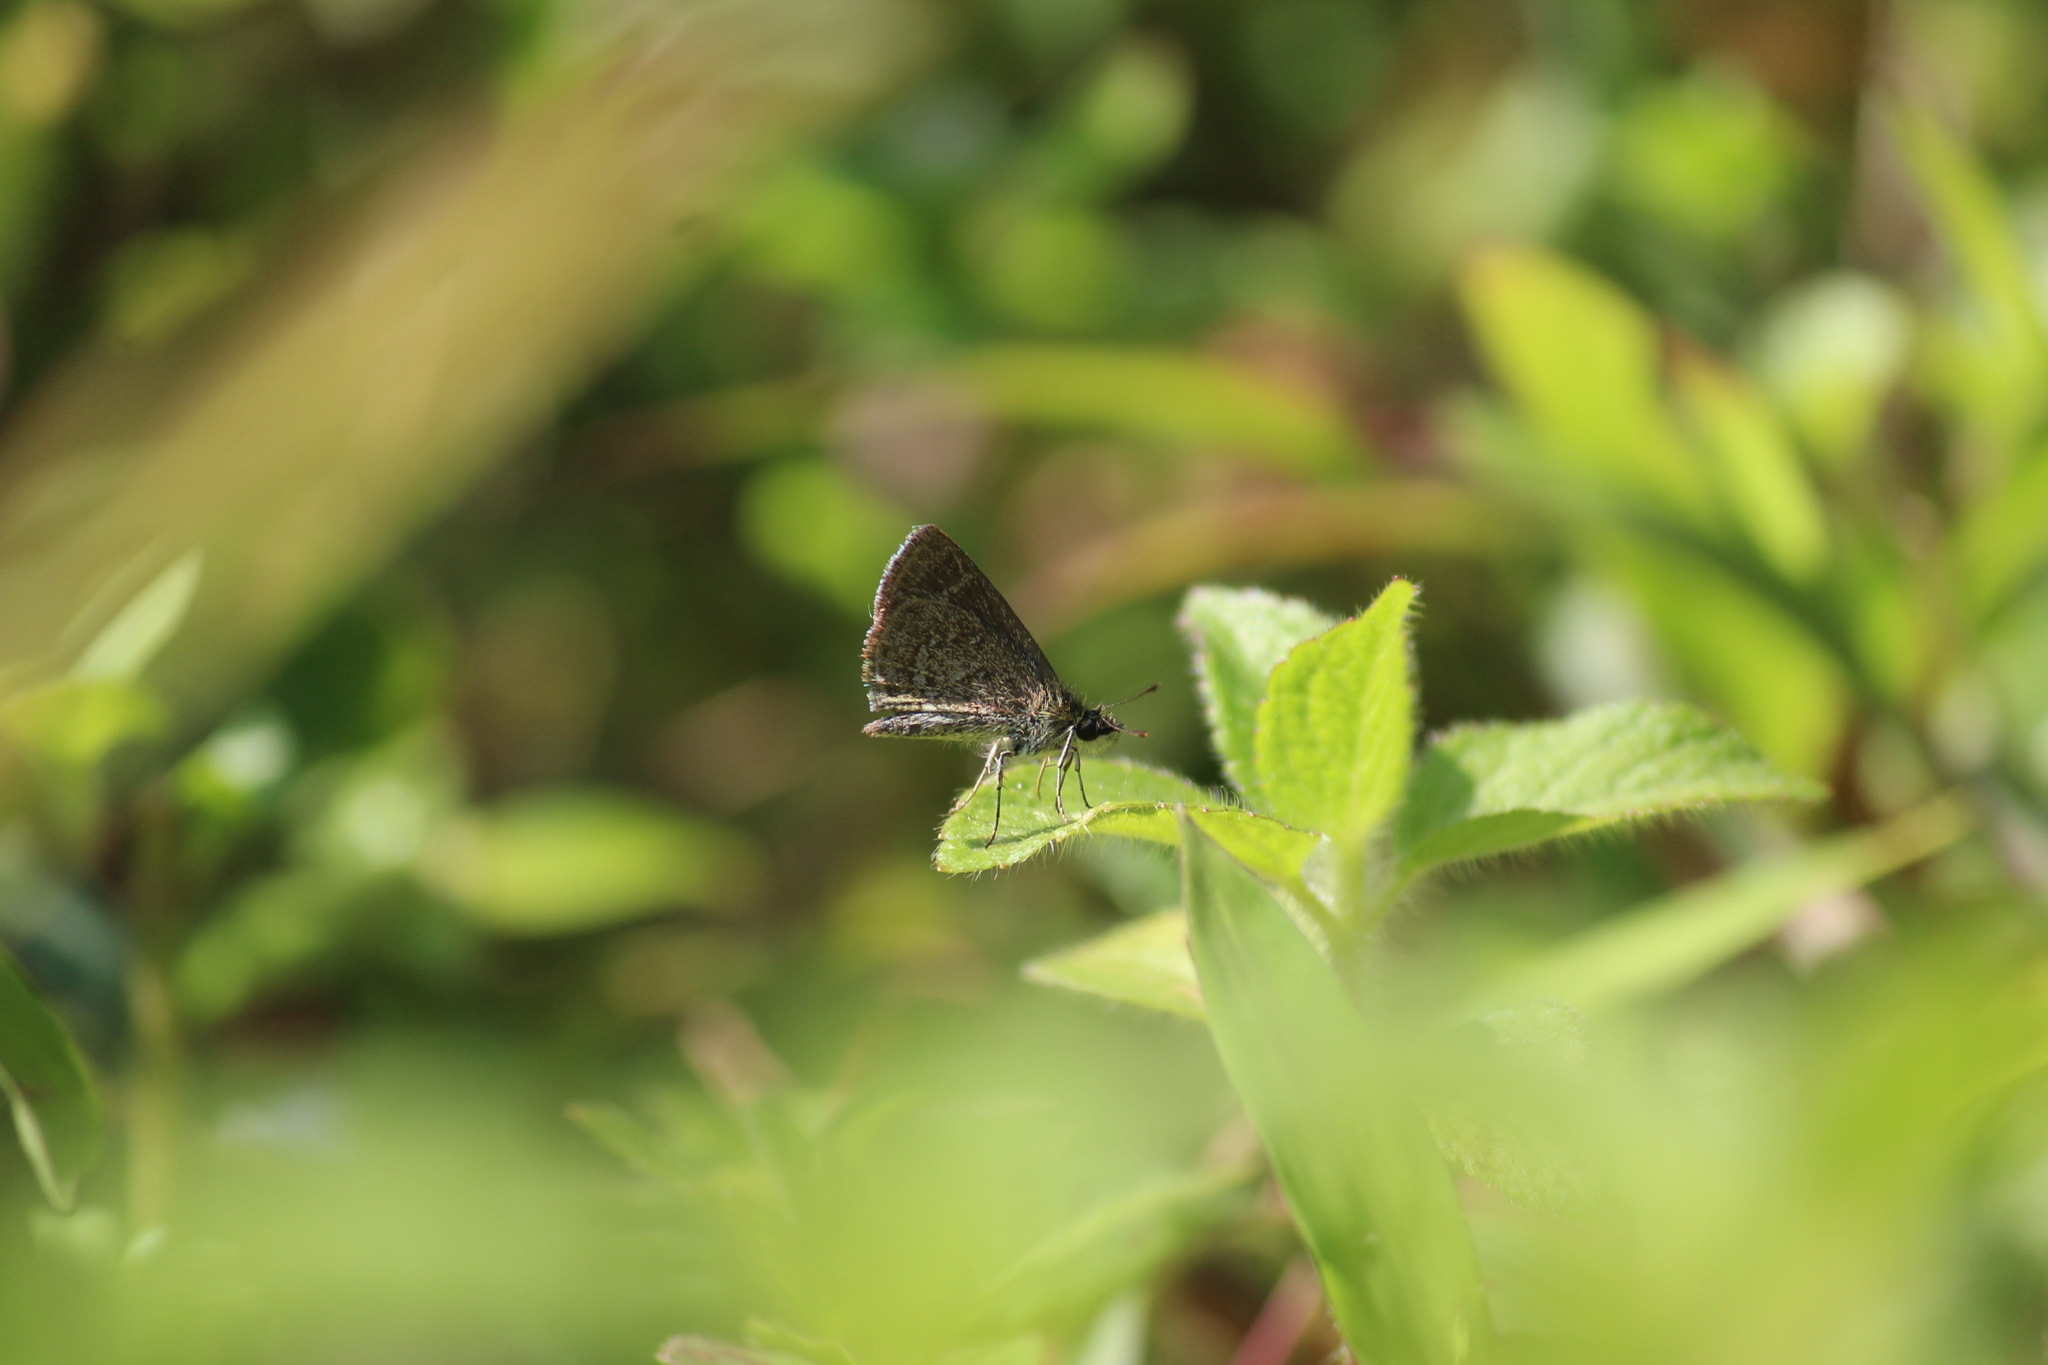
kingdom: Animalia
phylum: Arthropoda
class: Insecta
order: Lepidoptera
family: Hesperiidae
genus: Aeromachus
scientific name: Aeromachus pygmaeus
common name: Pygmy scrub hopper
